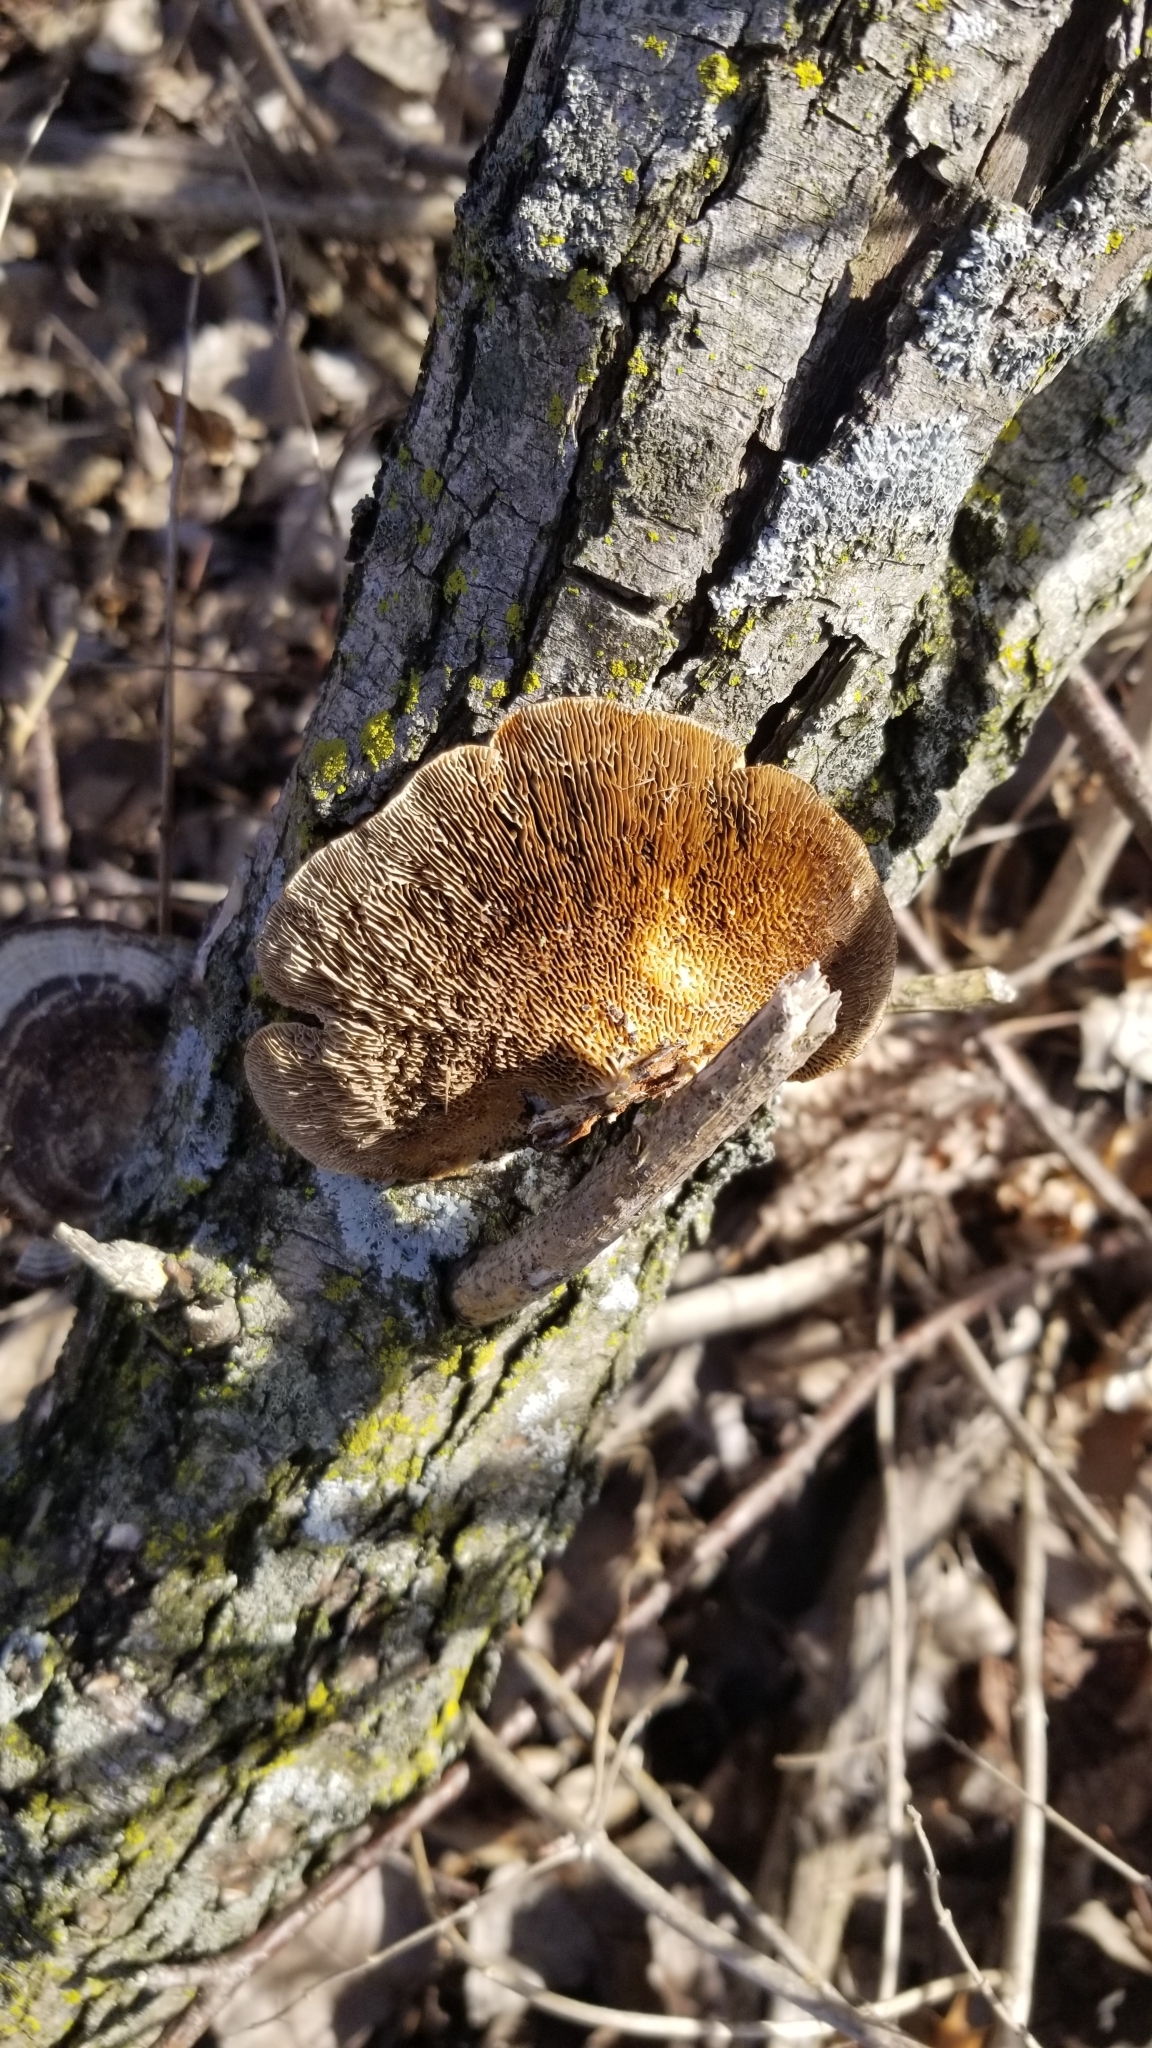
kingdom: Fungi
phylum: Basidiomycota
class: Agaricomycetes
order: Polyporales
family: Polyporaceae
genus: Daedaleopsis
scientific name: Daedaleopsis confragosa
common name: Blushing bracket
